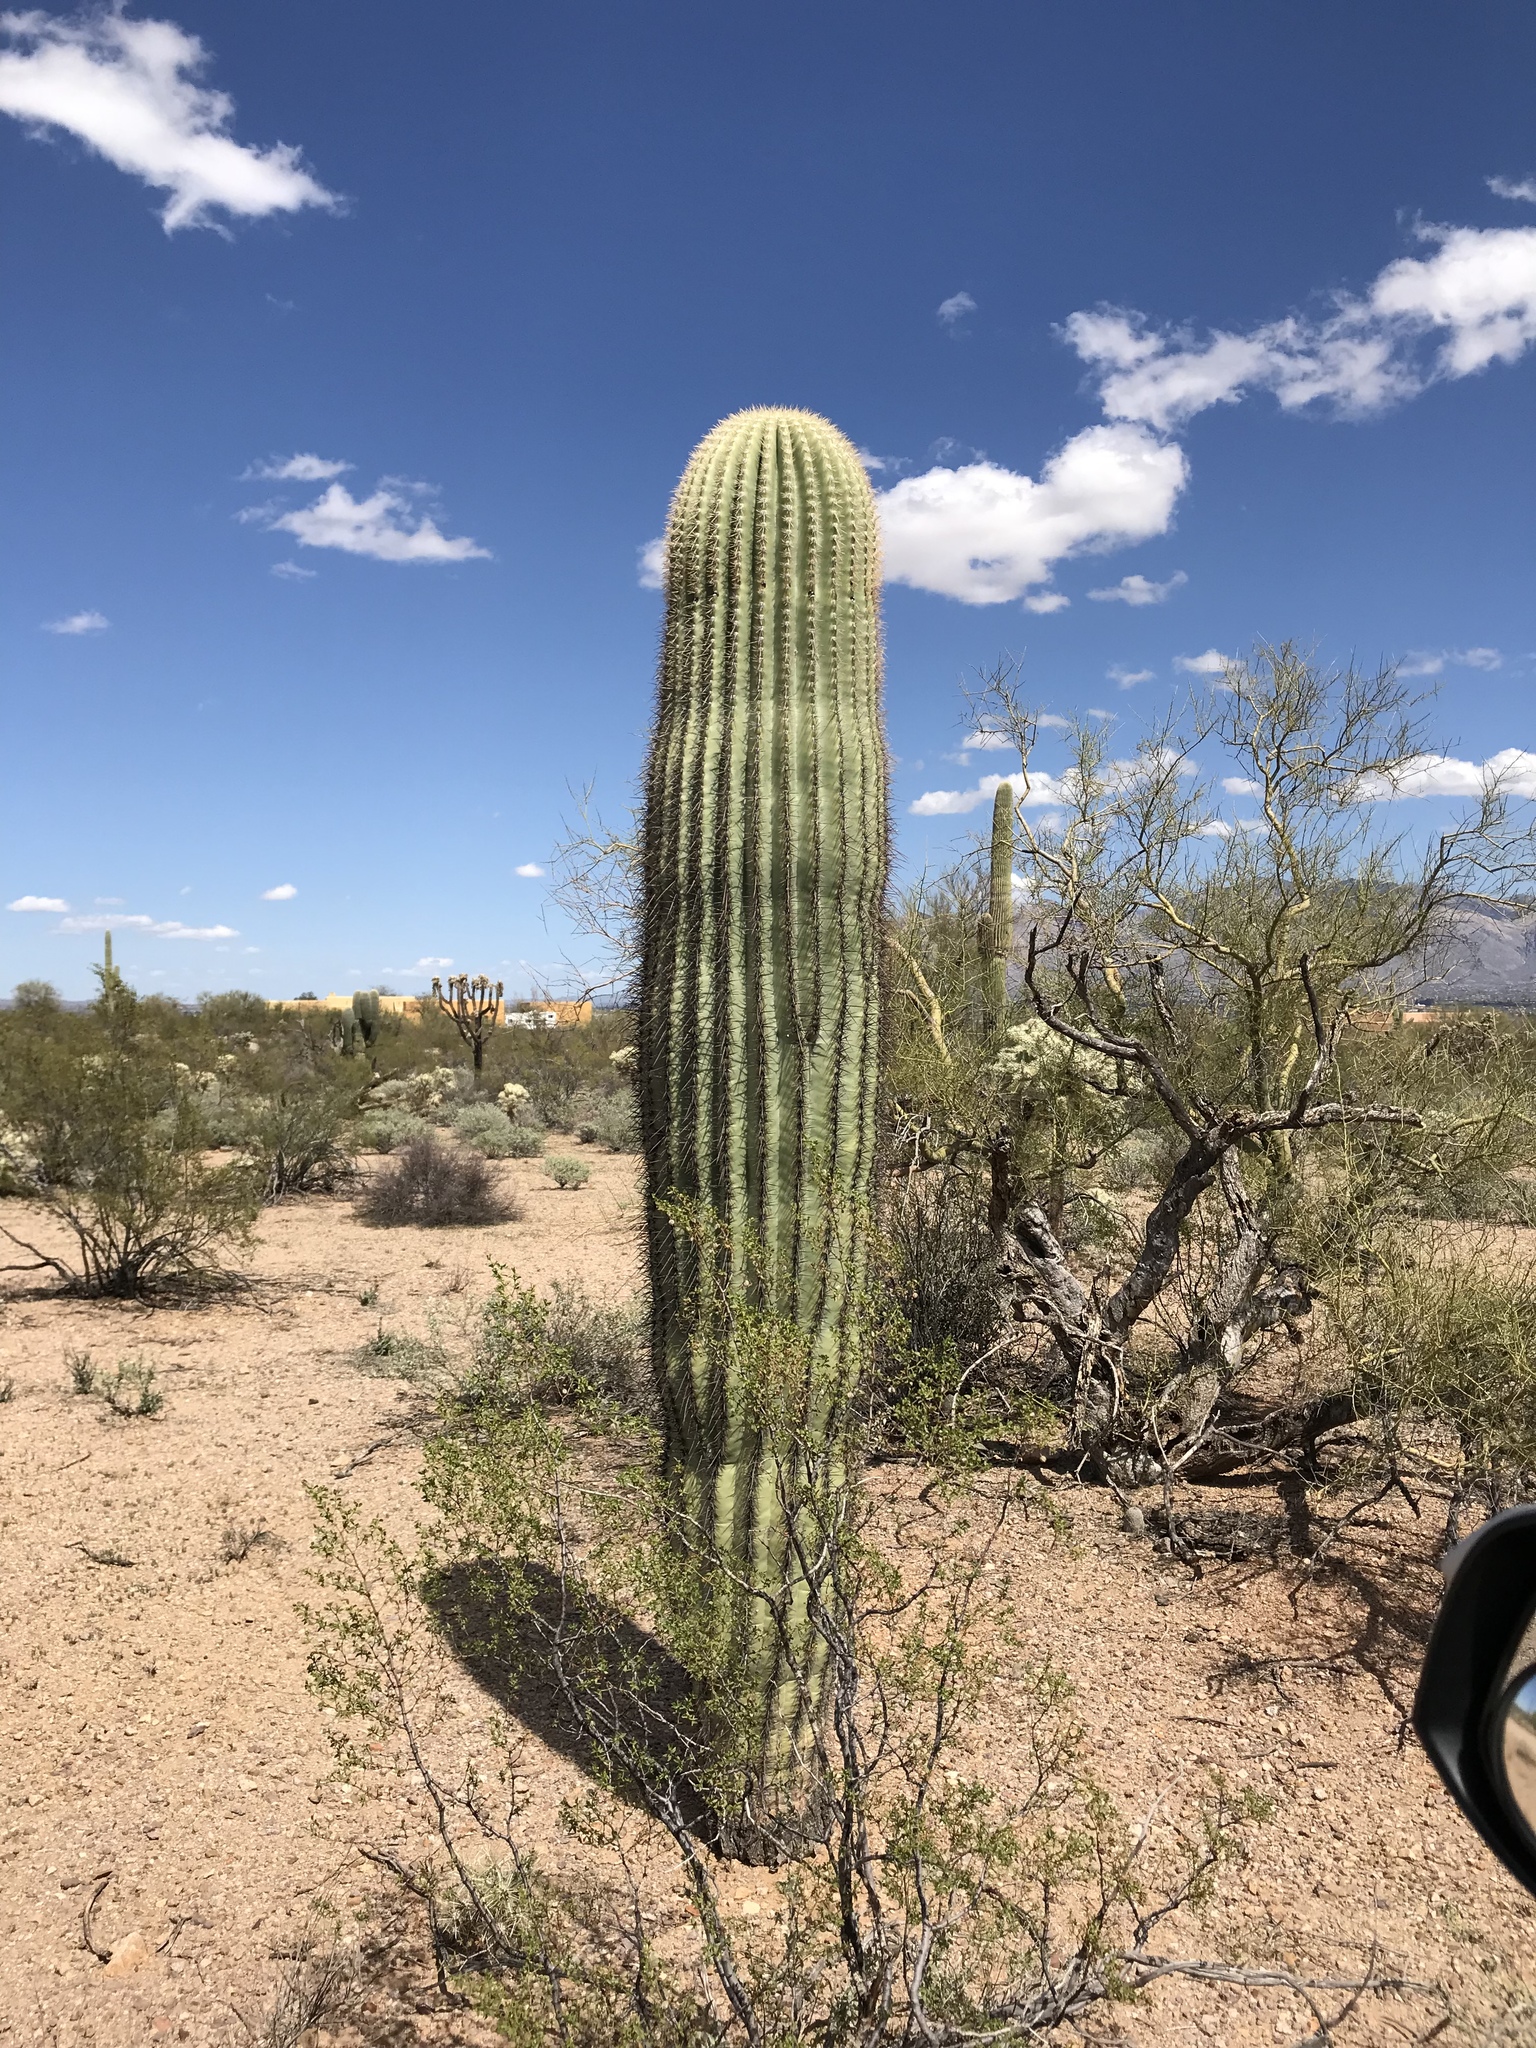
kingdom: Plantae
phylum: Tracheophyta
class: Magnoliopsida
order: Caryophyllales
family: Cactaceae
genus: Carnegiea
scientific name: Carnegiea gigantea
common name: Saguaro
